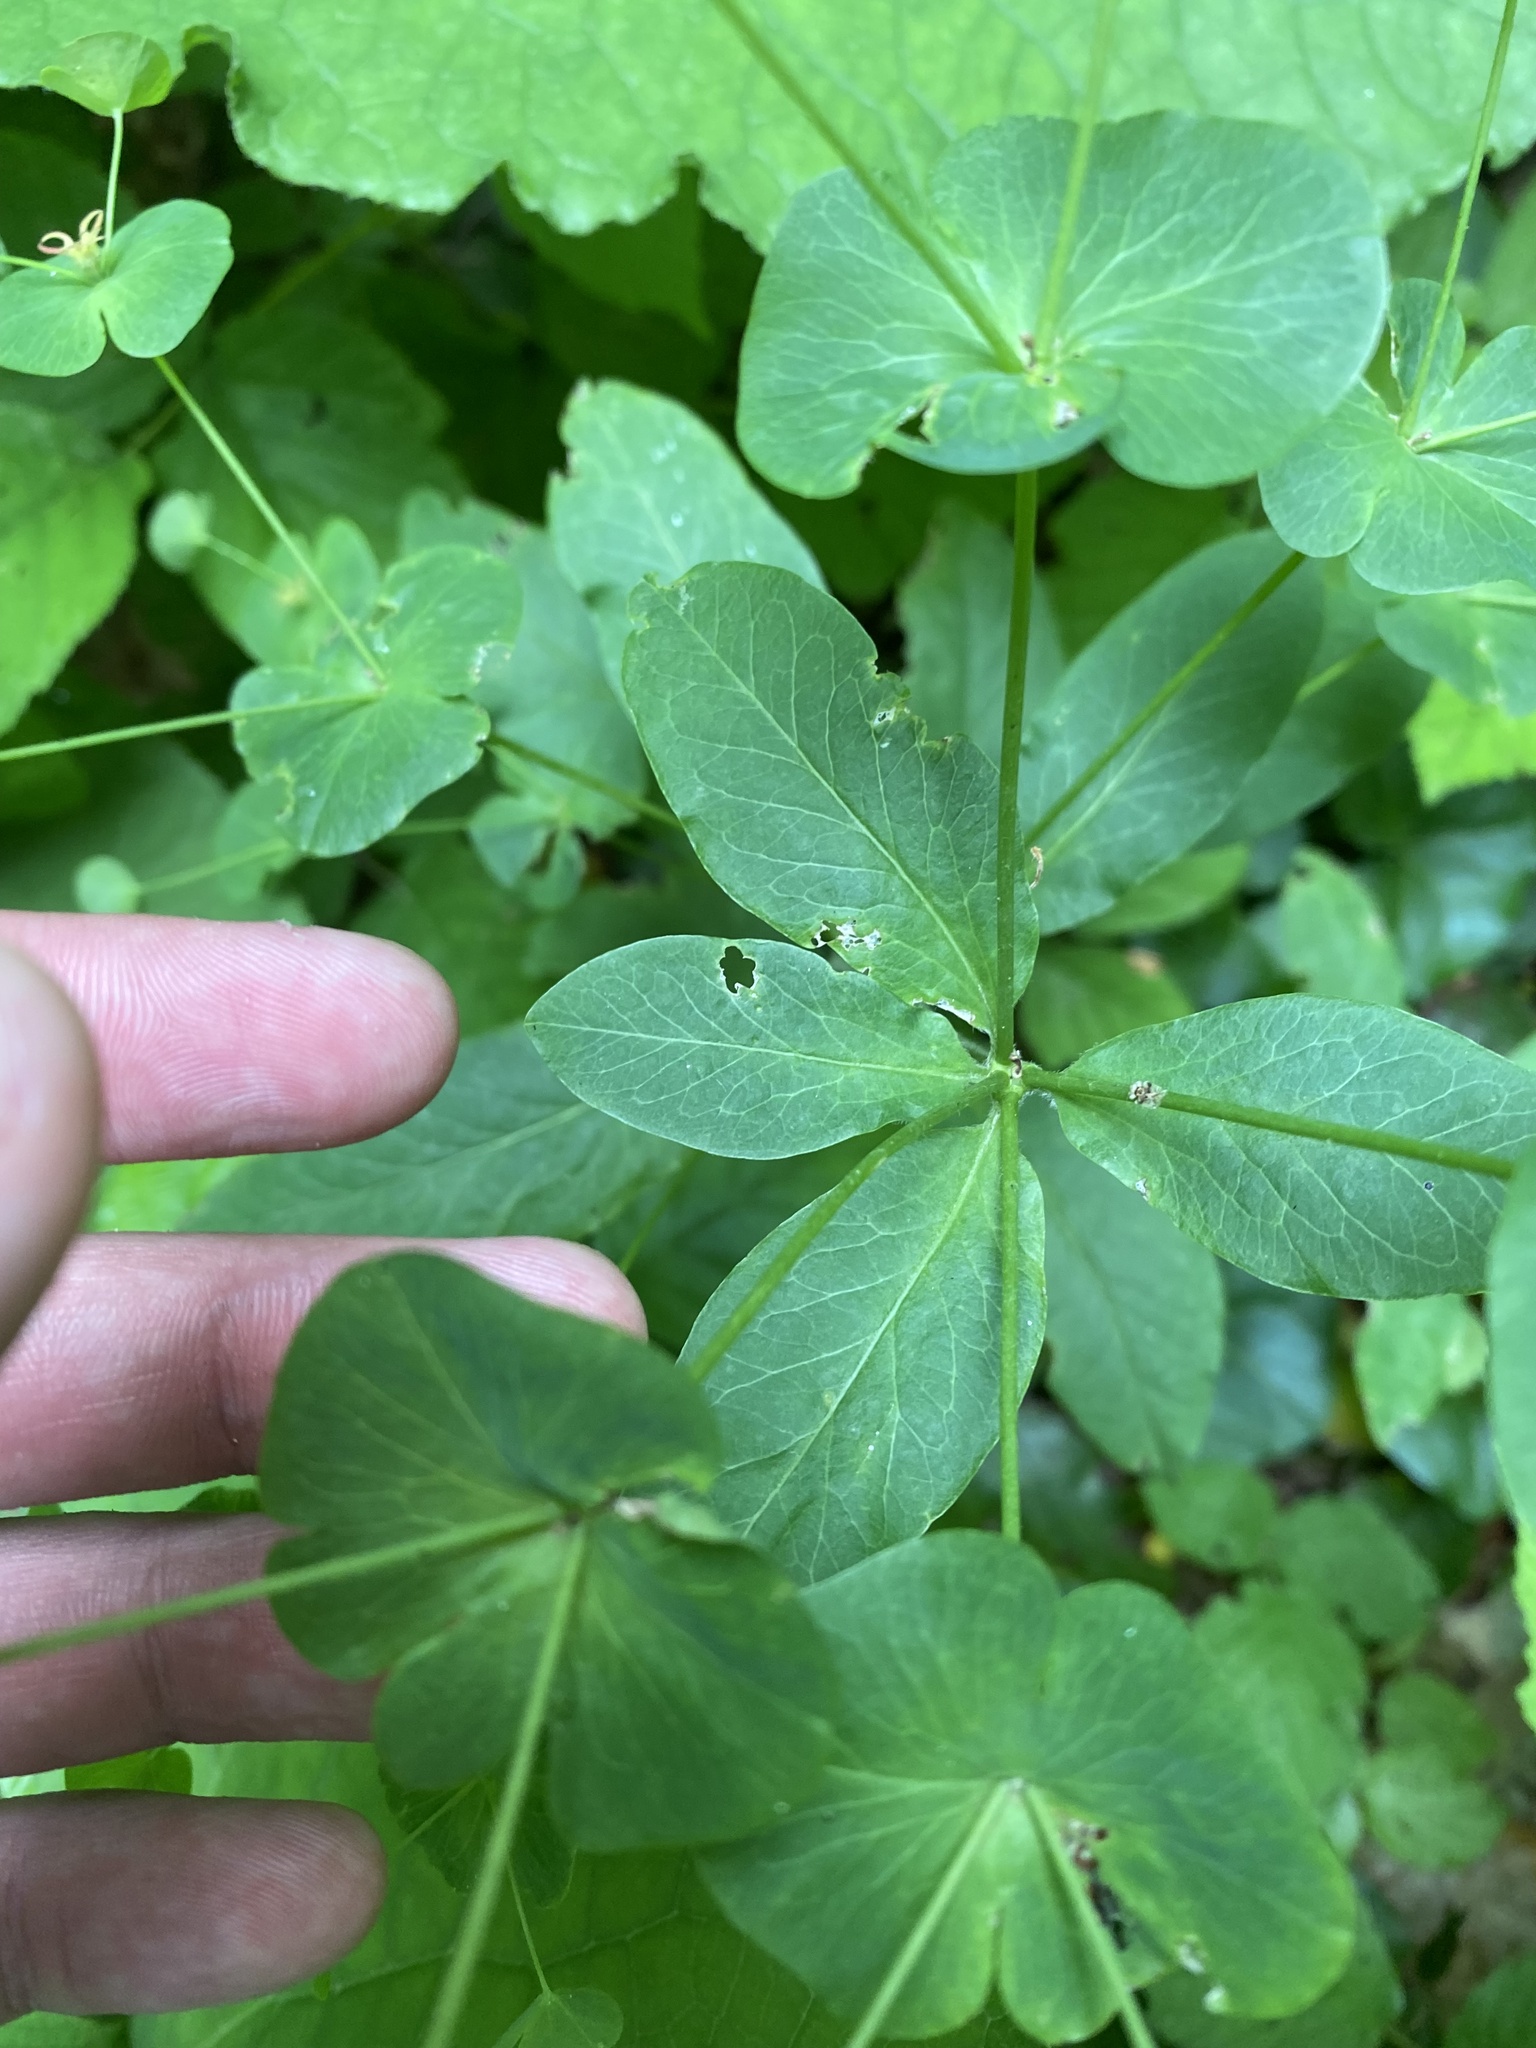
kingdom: Plantae
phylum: Tracheophyta
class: Magnoliopsida
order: Malpighiales
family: Euphorbiaceae
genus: Euphorbia
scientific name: Euphorbia
